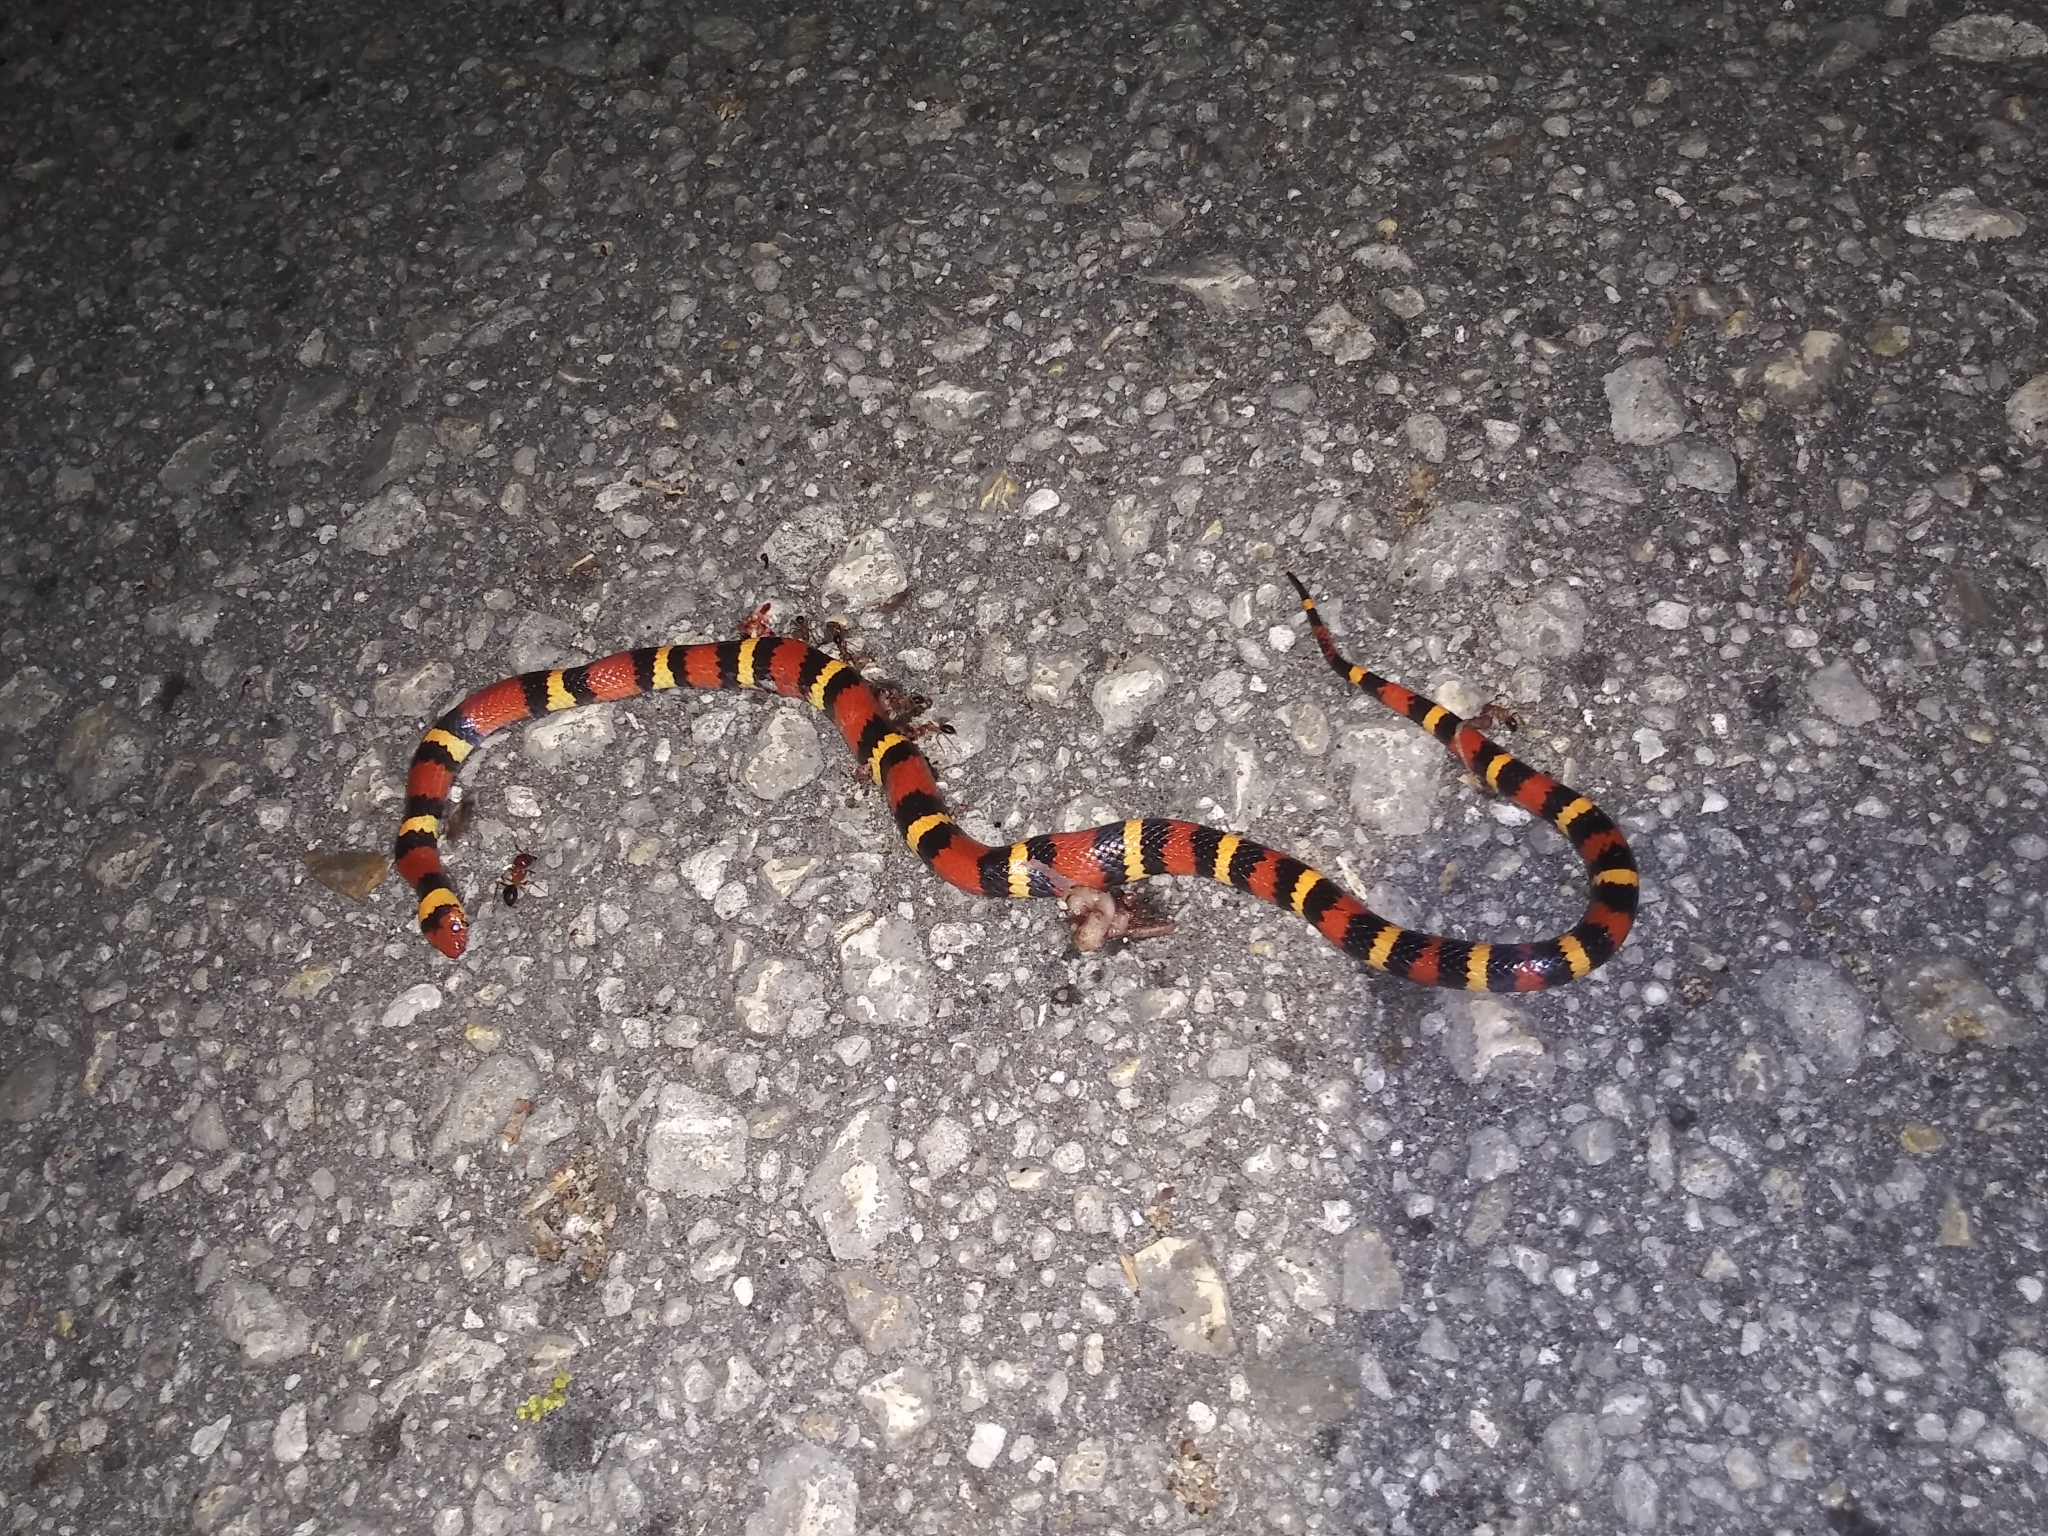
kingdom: Animalia
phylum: Chordata
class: Squamata
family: Colubridae
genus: Lampropeltis
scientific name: Lampropeltis elapsoides
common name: Scarlet kingsnake
